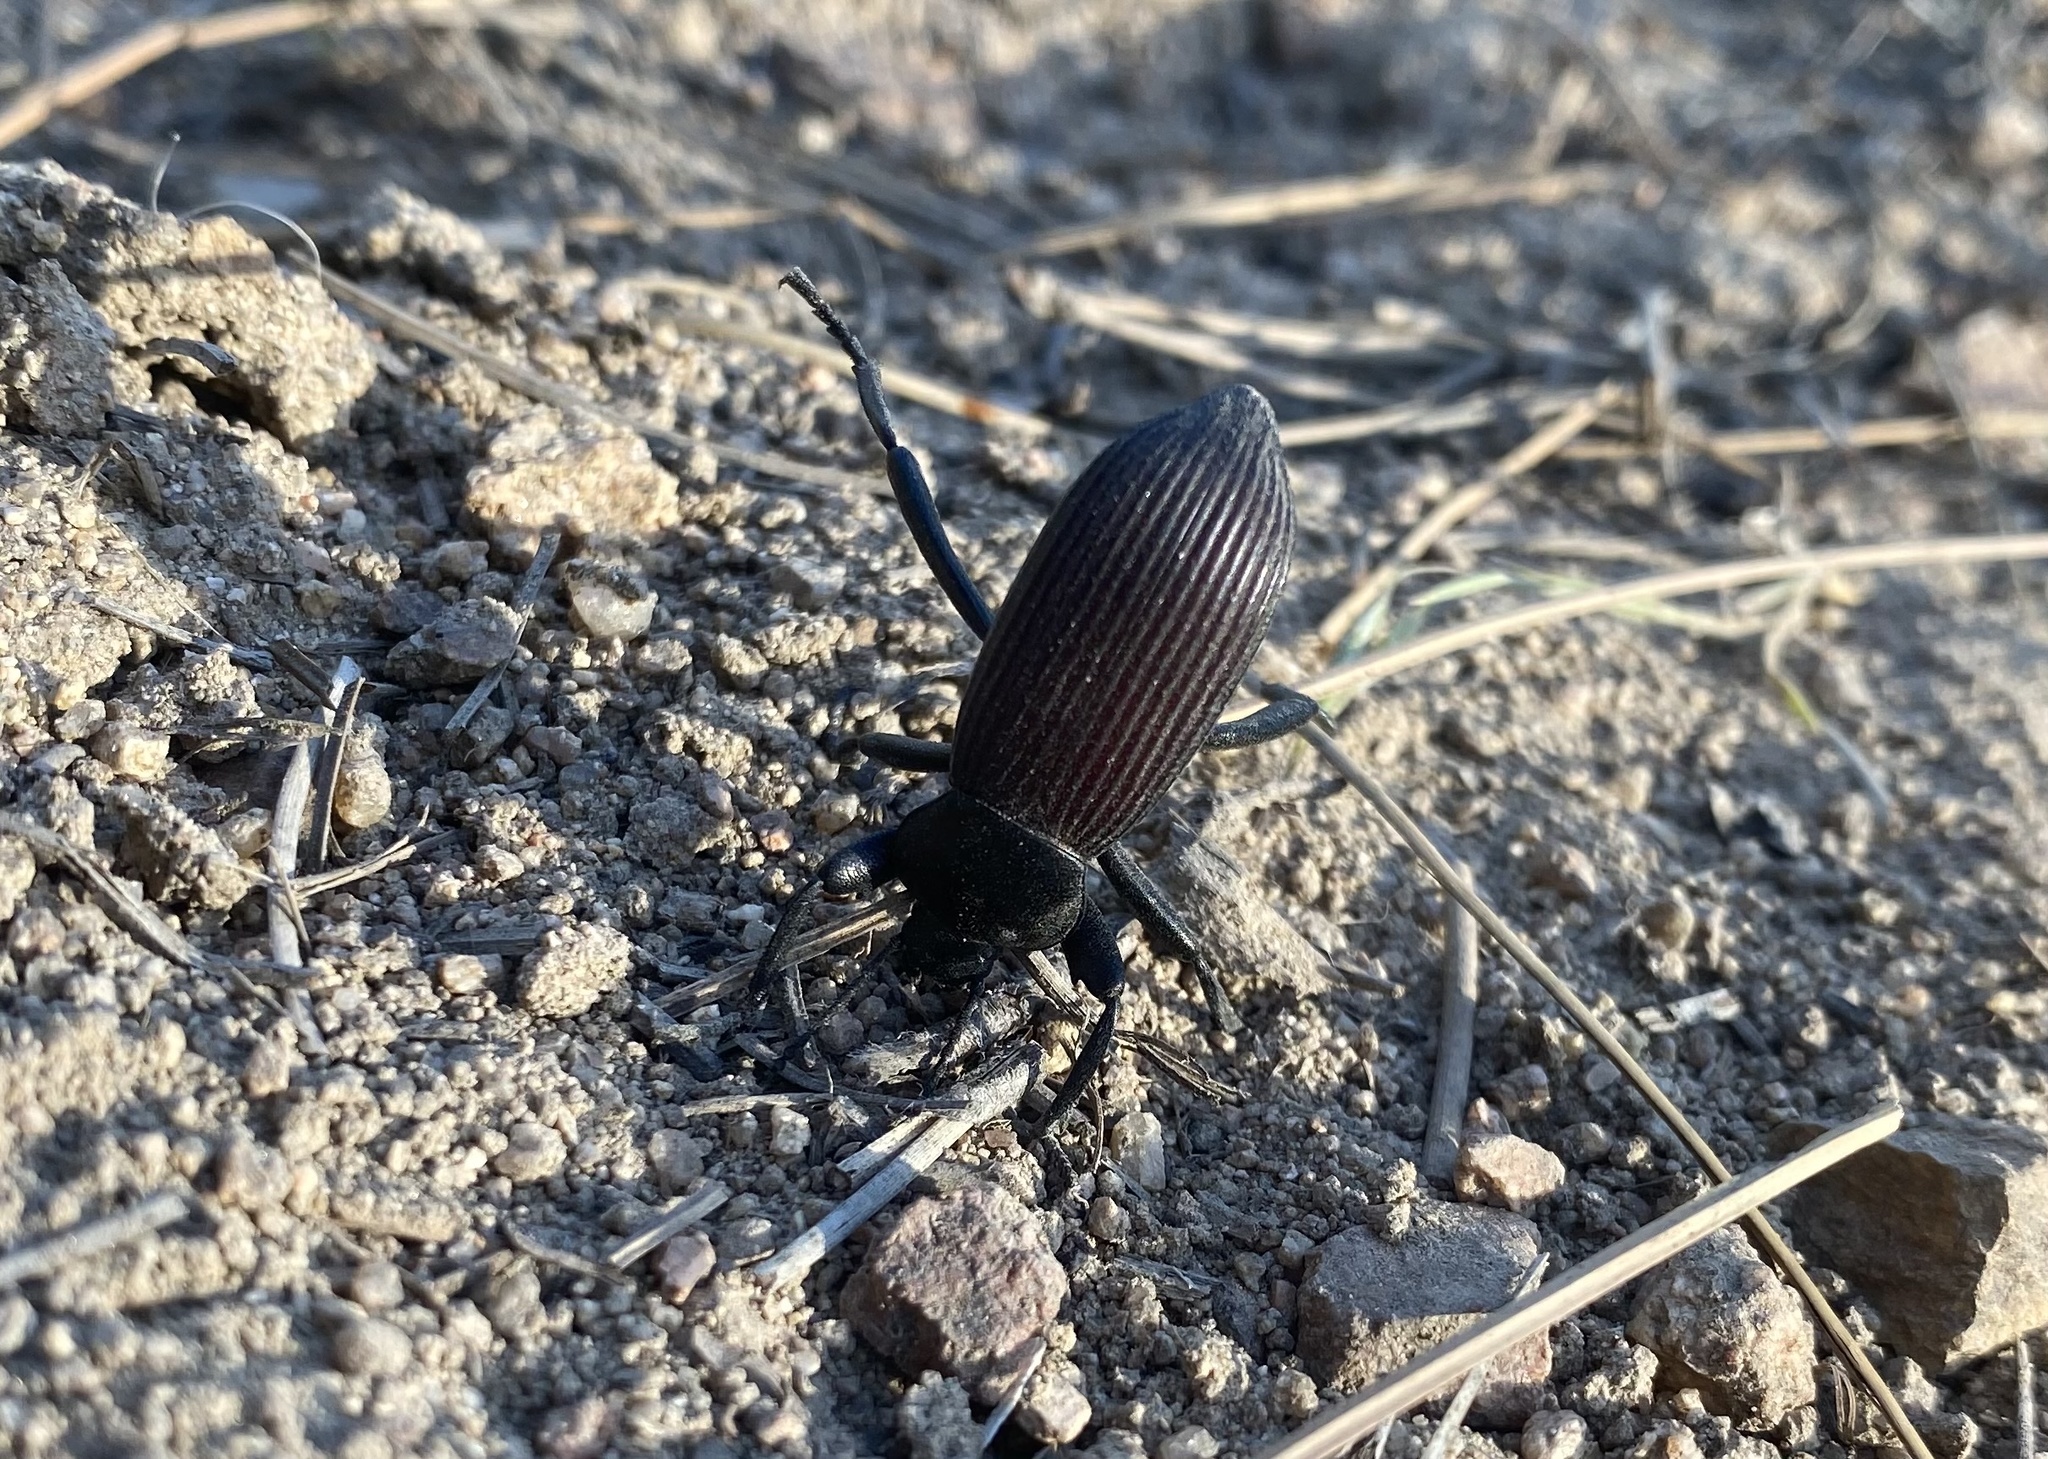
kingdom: Animalia
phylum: Arthropoda
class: Insecta
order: Coleoptera
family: Tenebrionidae
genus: Eleodes
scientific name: Eleodes obscura
